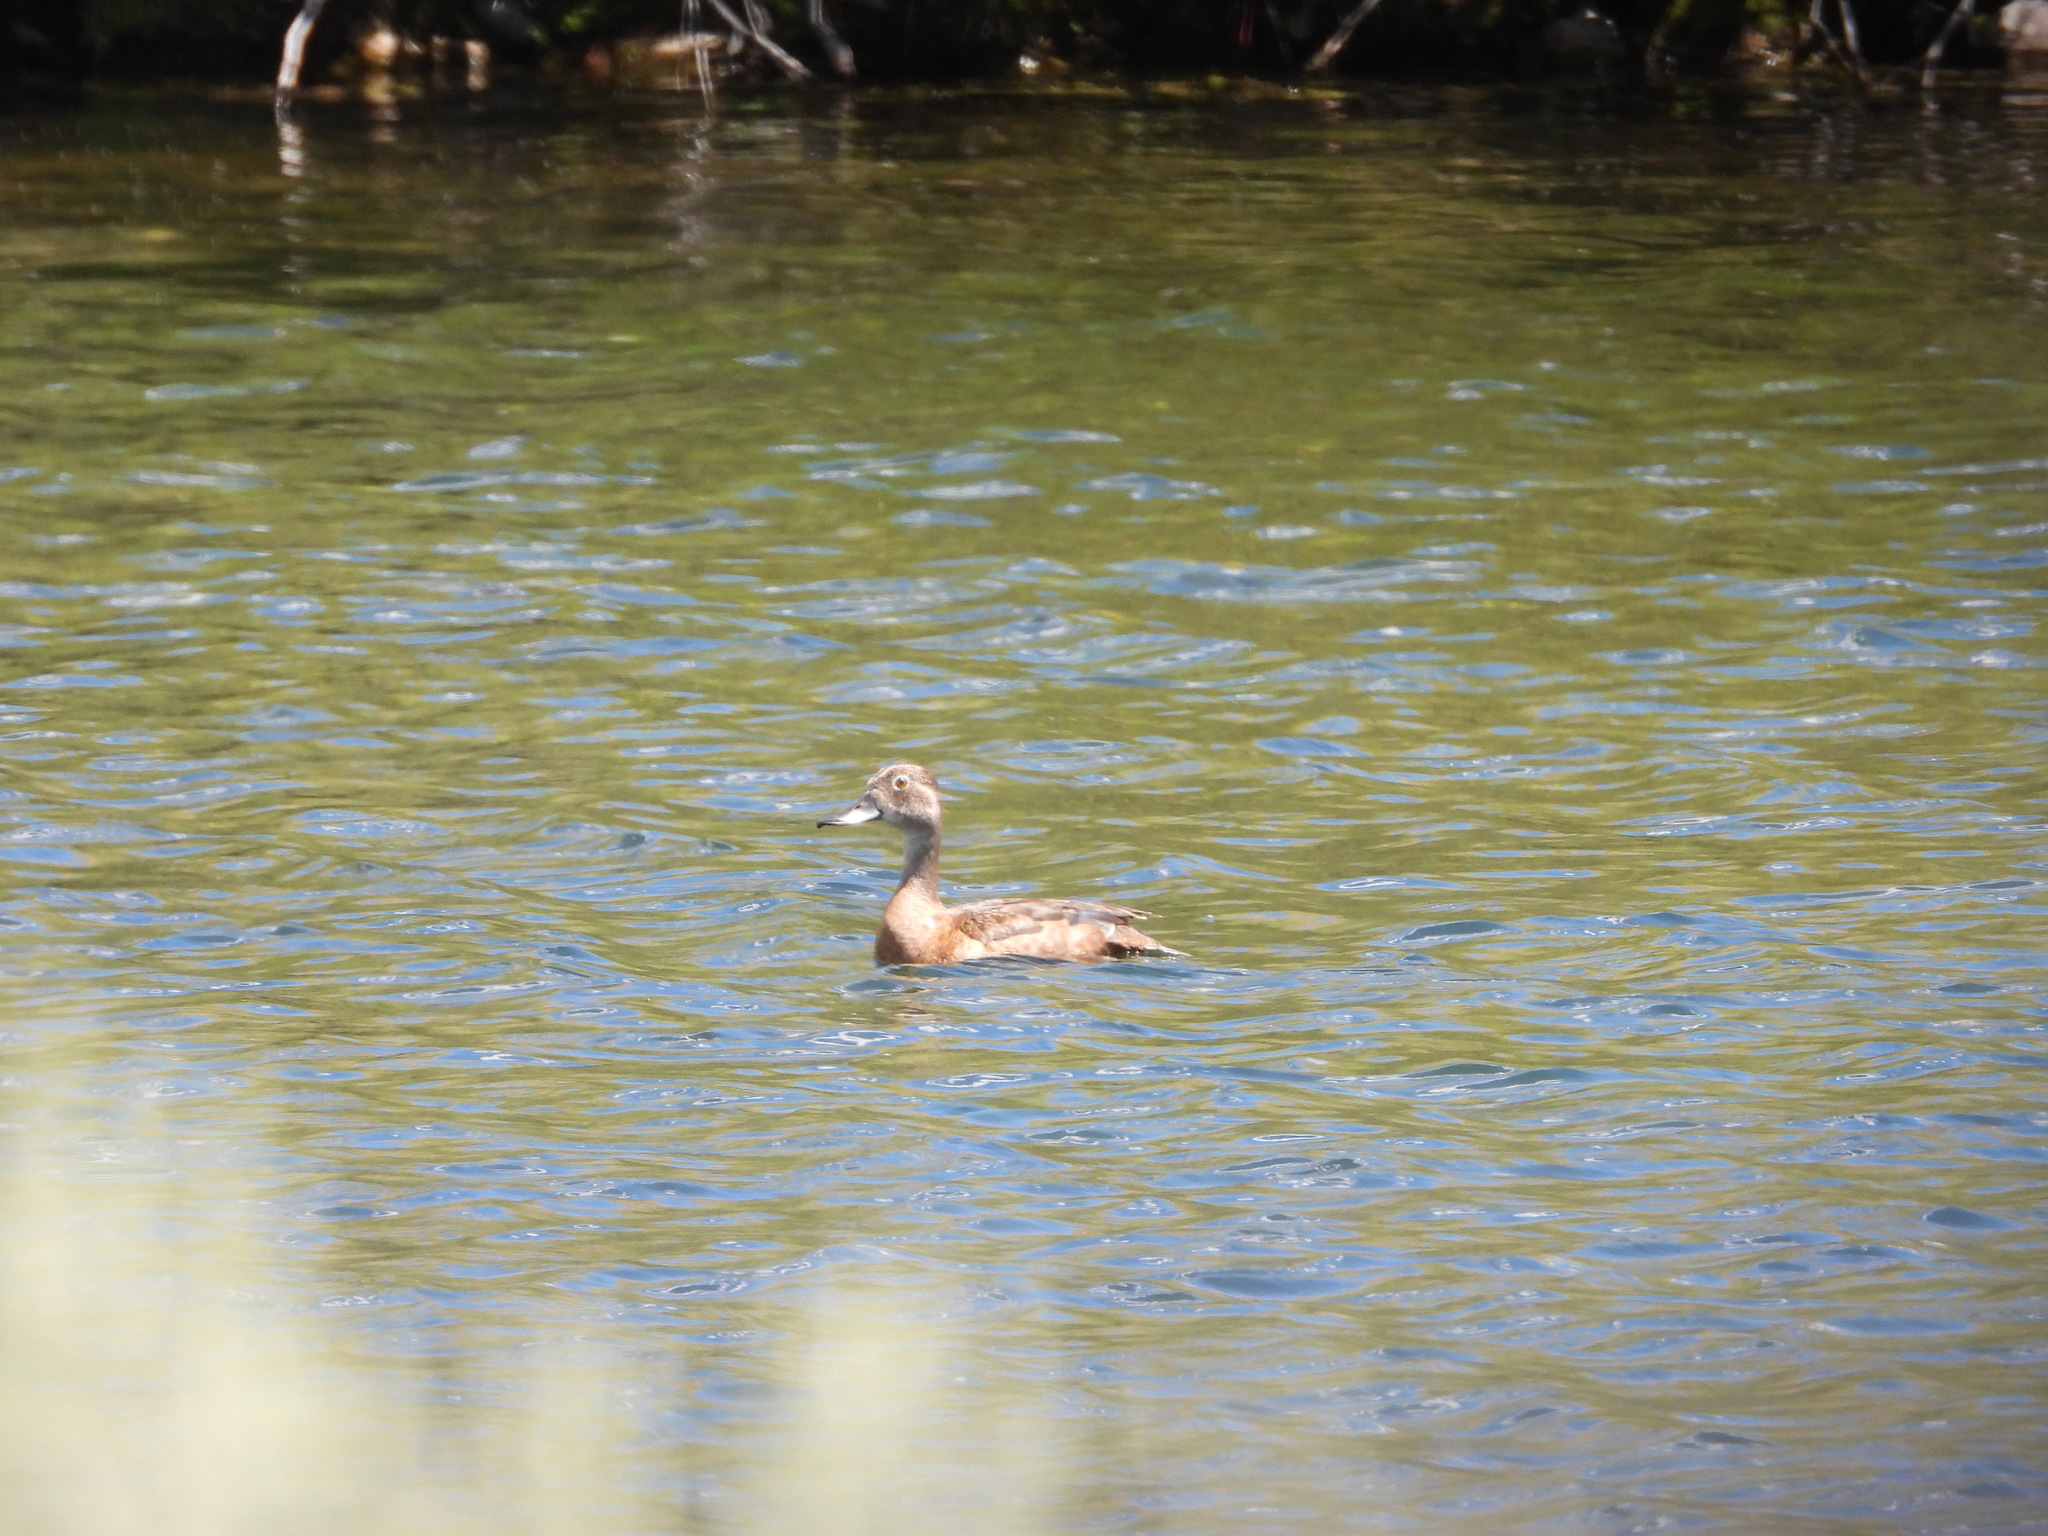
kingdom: Animalia
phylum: Chordata
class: Aves
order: Anseriformes
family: Anatidae
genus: Aythya
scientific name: Aythya collaris
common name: Ring-necked duck
